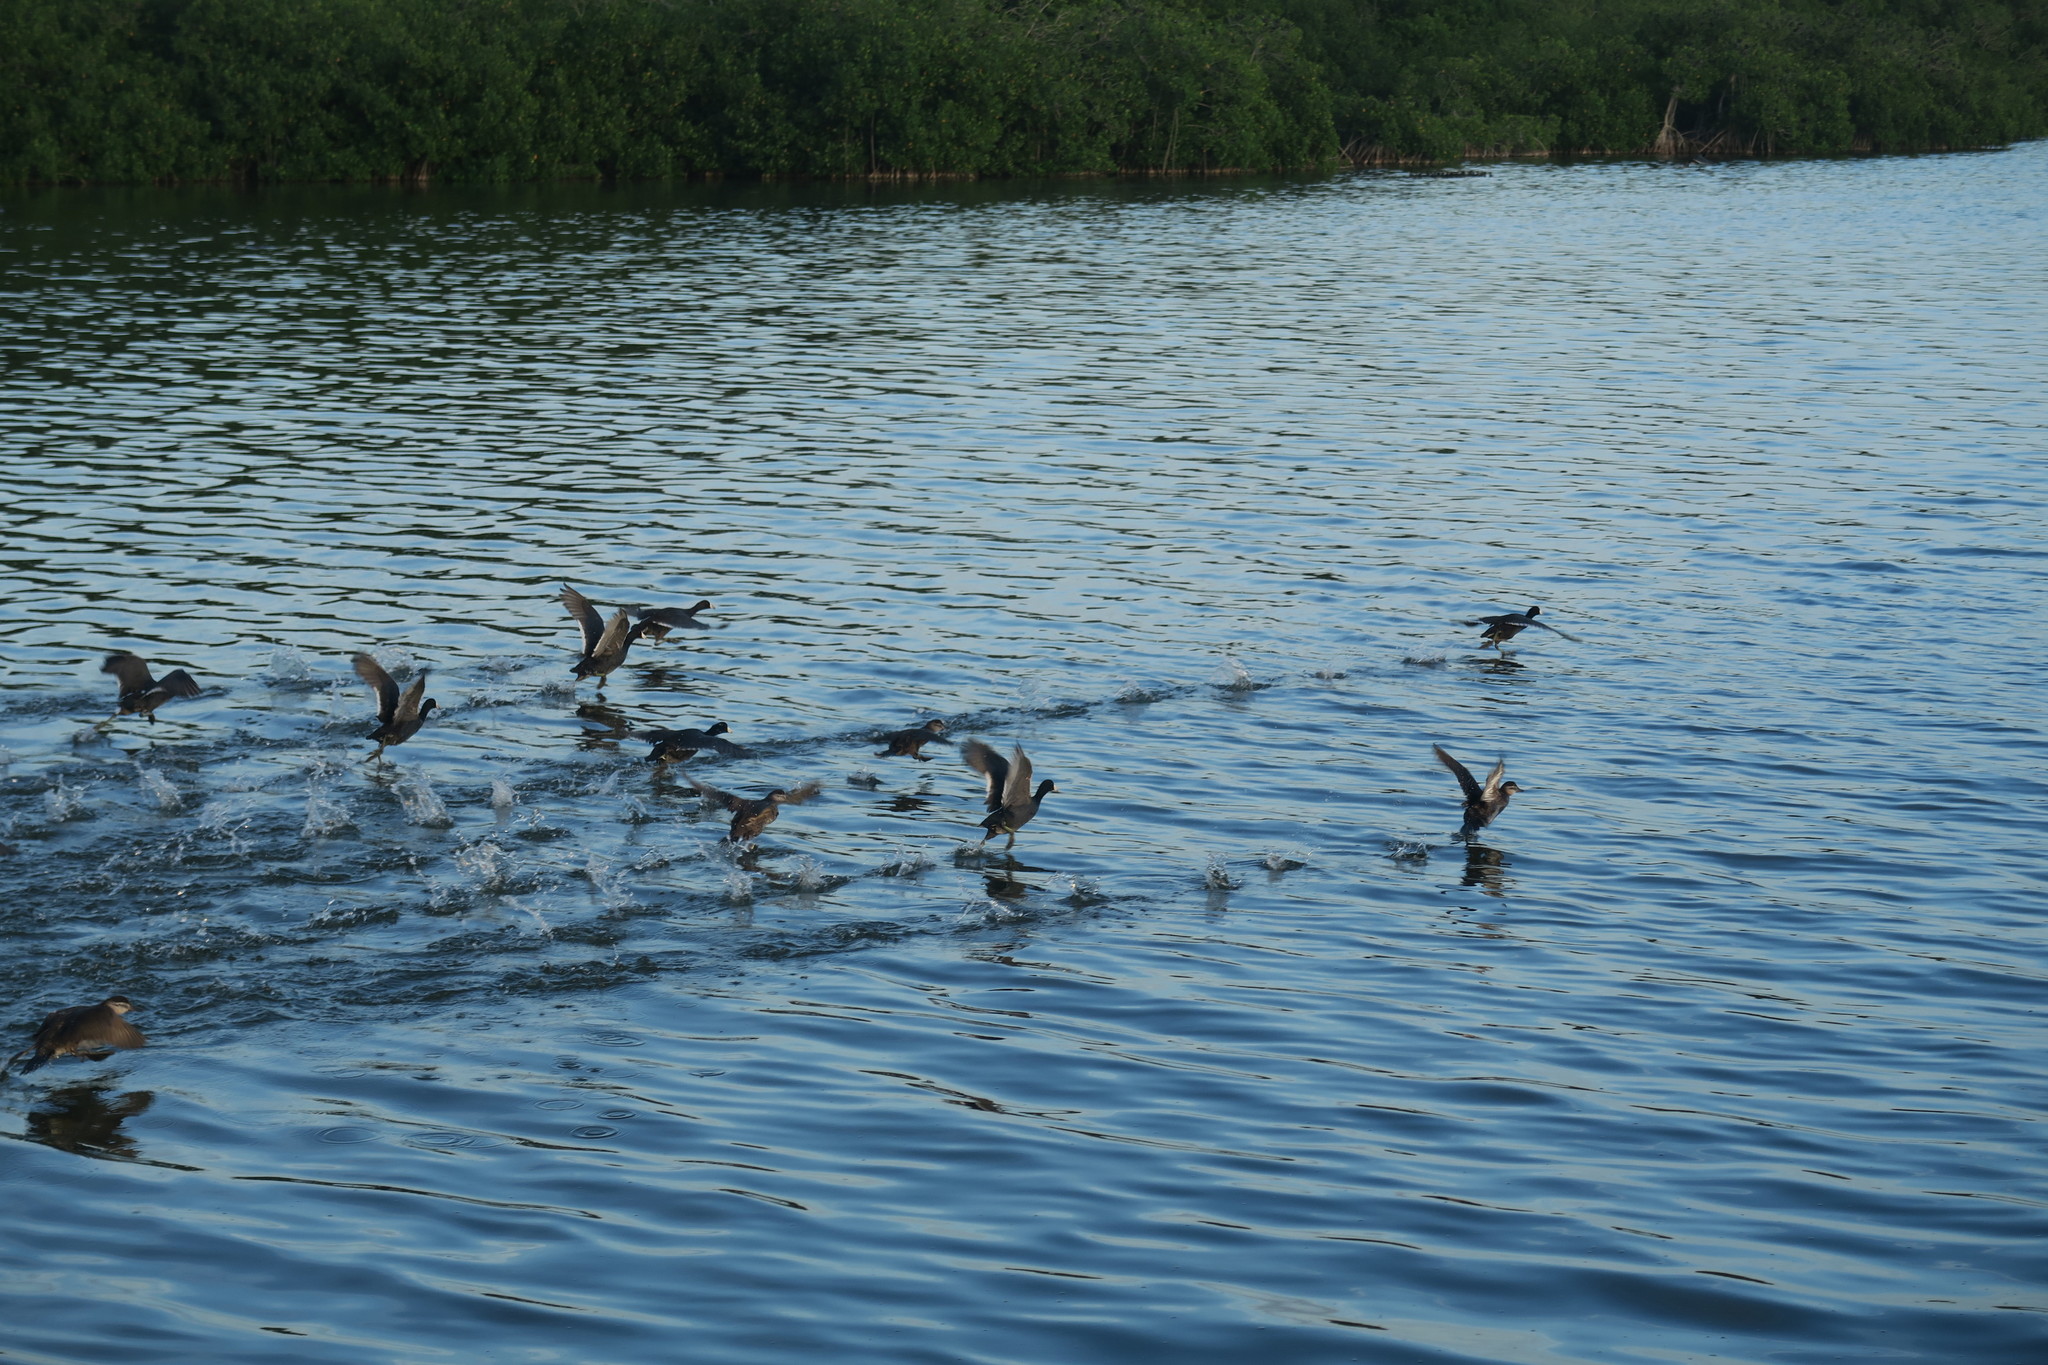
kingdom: Animalia
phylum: Chordata
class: Aves
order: Gruiformes
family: Rallidae
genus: Fulica
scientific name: Fulica americana
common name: American coot
